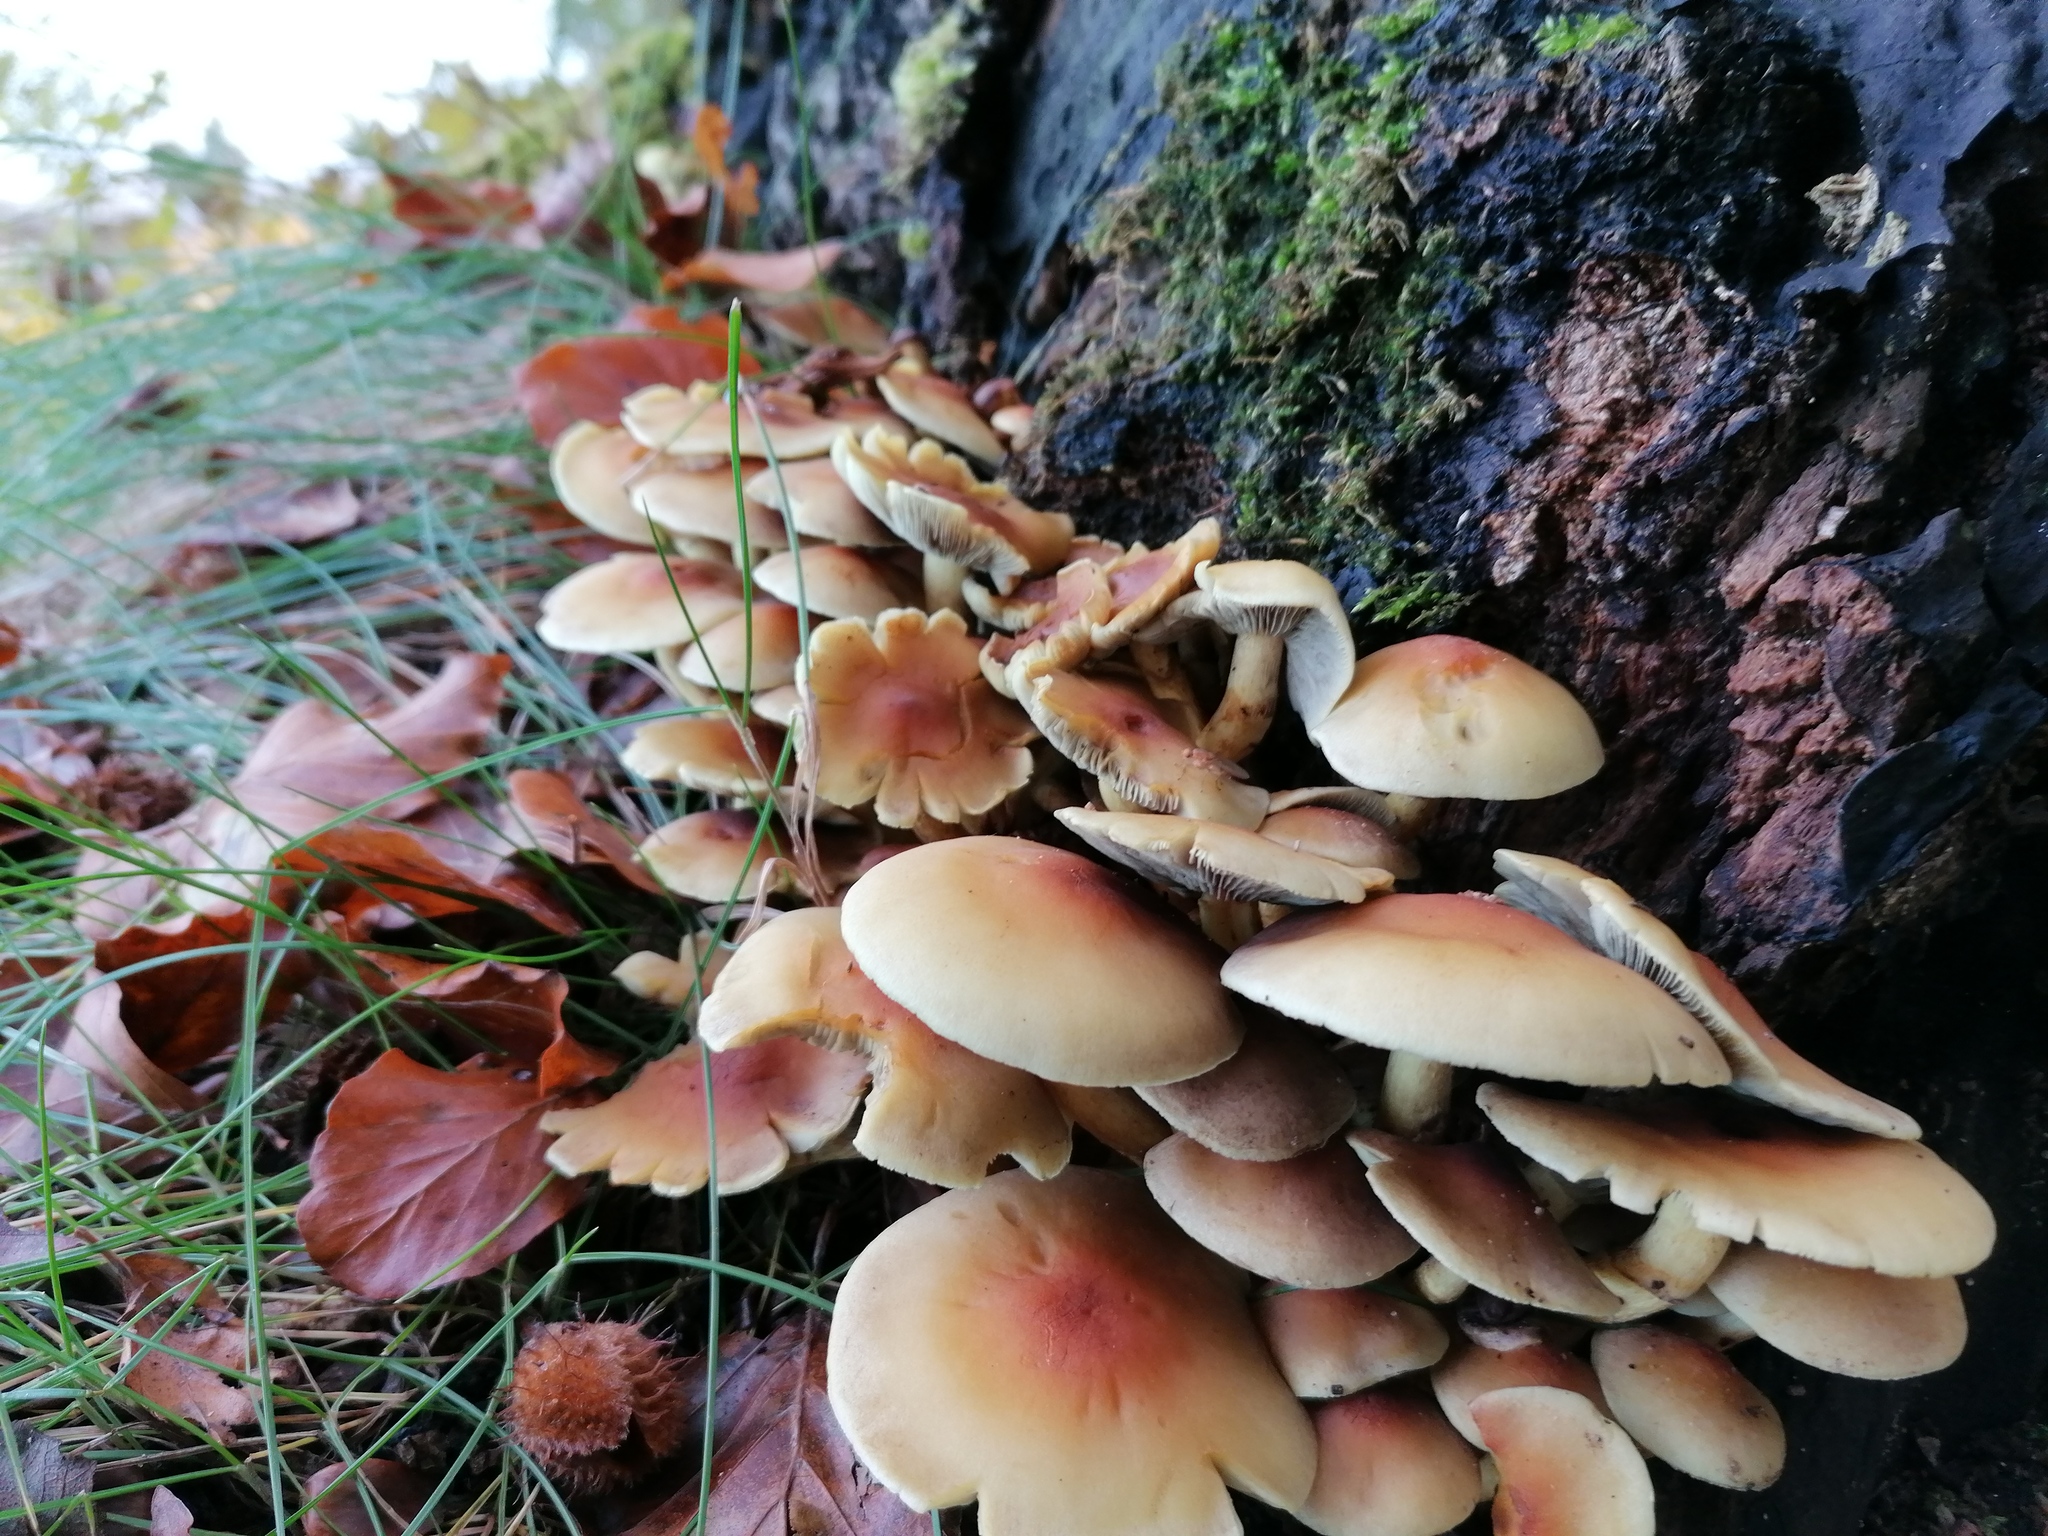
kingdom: Fungi
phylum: Basidiomycota
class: Agaricomycetes
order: Agaricales
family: Strophariaceae
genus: Hypholoma
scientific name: Hypholoma fasciculare
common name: Sulphur tuft
